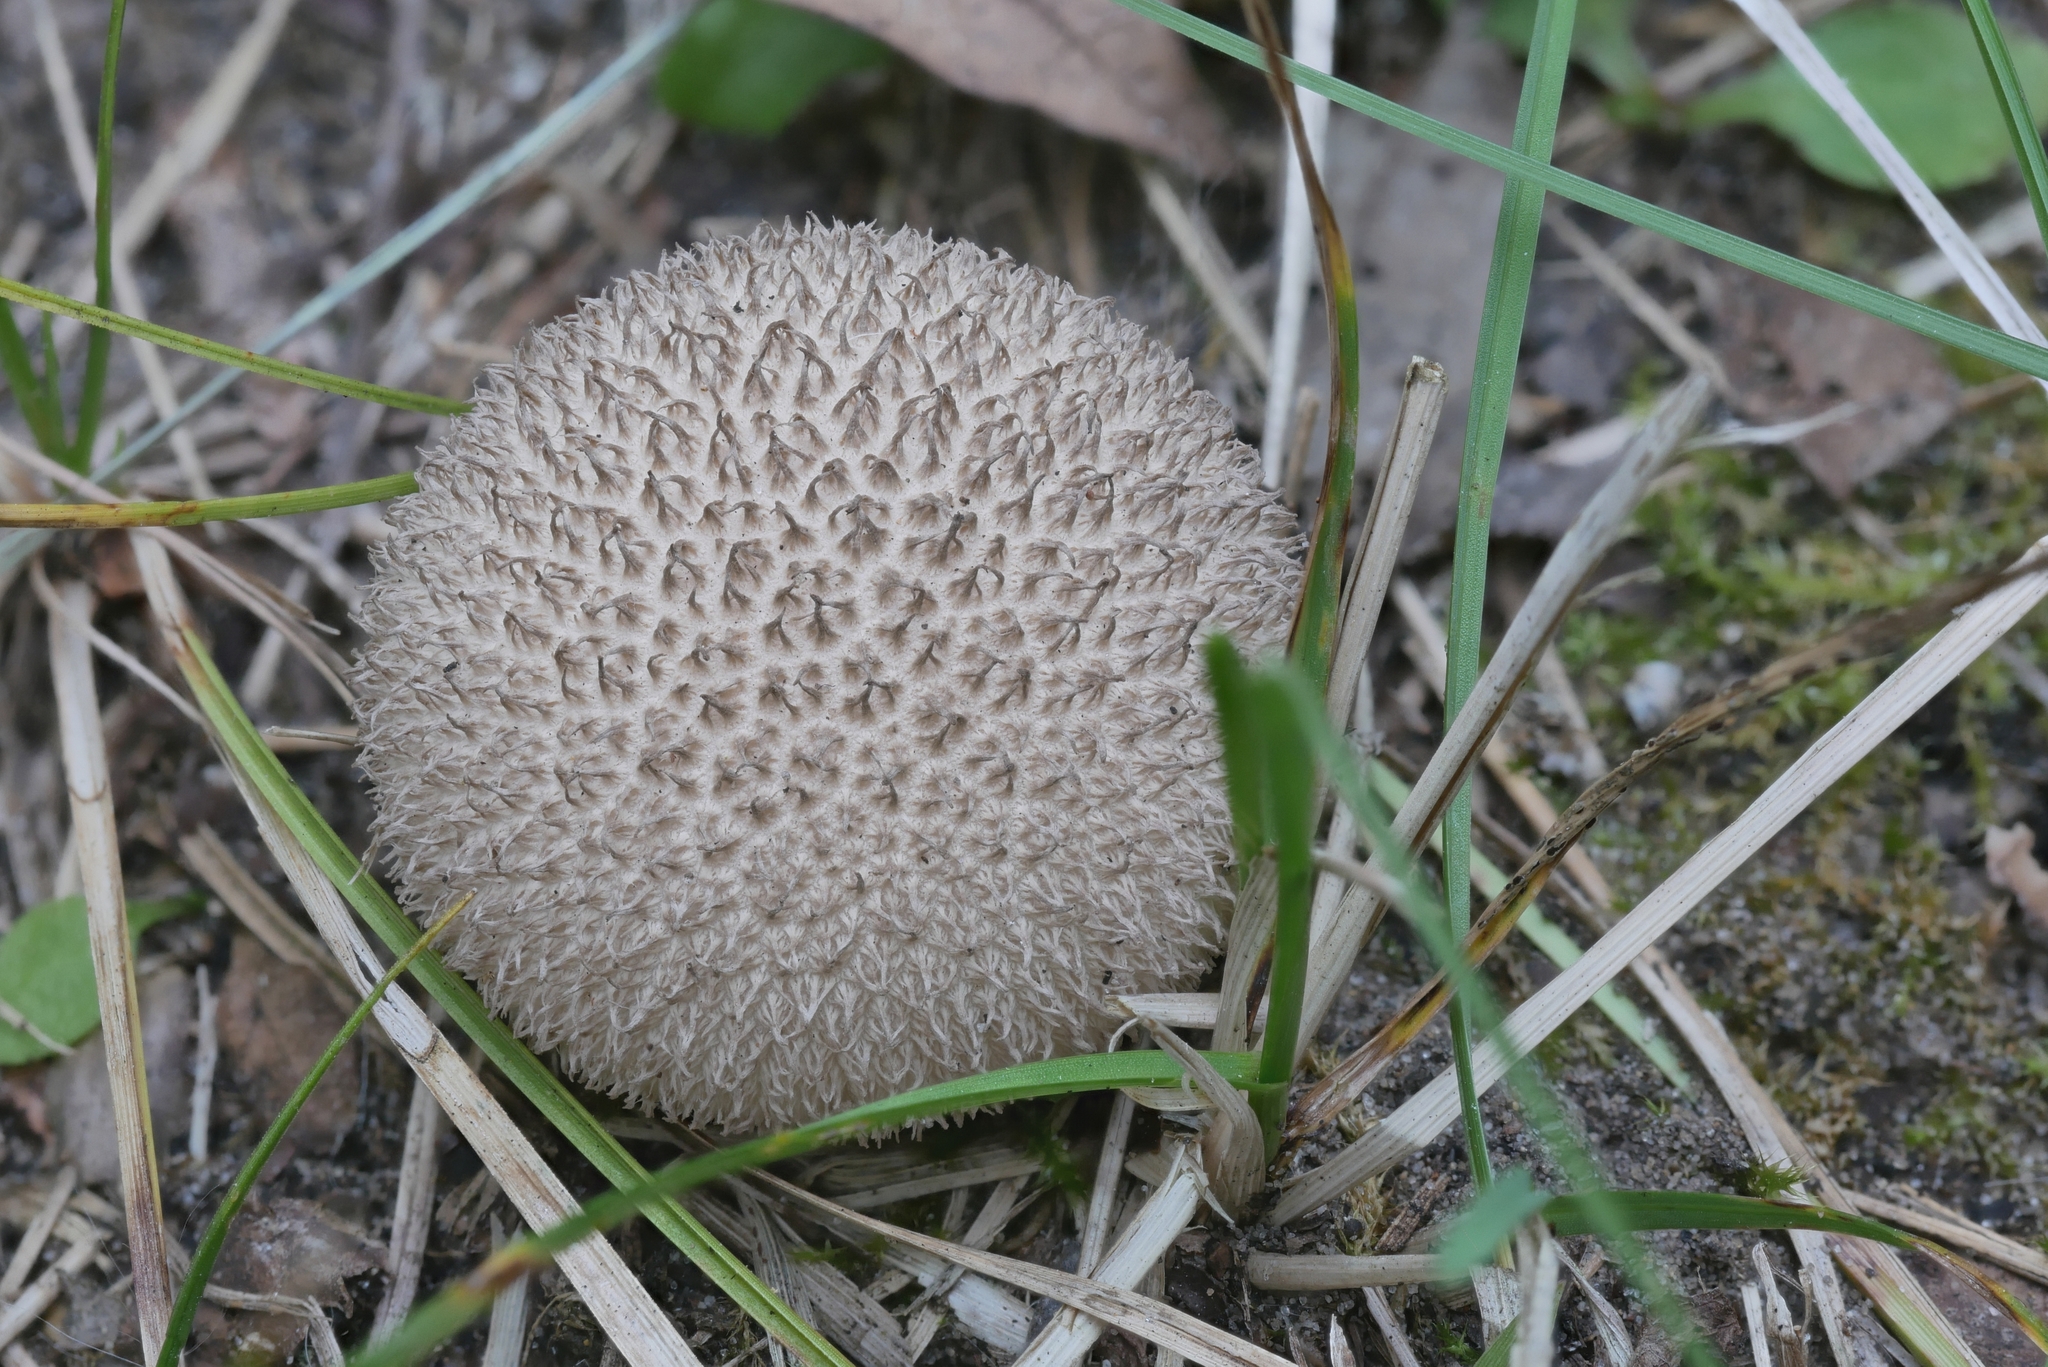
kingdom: Fungi
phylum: Basidiomycota
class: Agaricomycetes
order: Agaricales
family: Lycoperdaceae
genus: Lycoperdon
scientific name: Lycoperdon americanum
